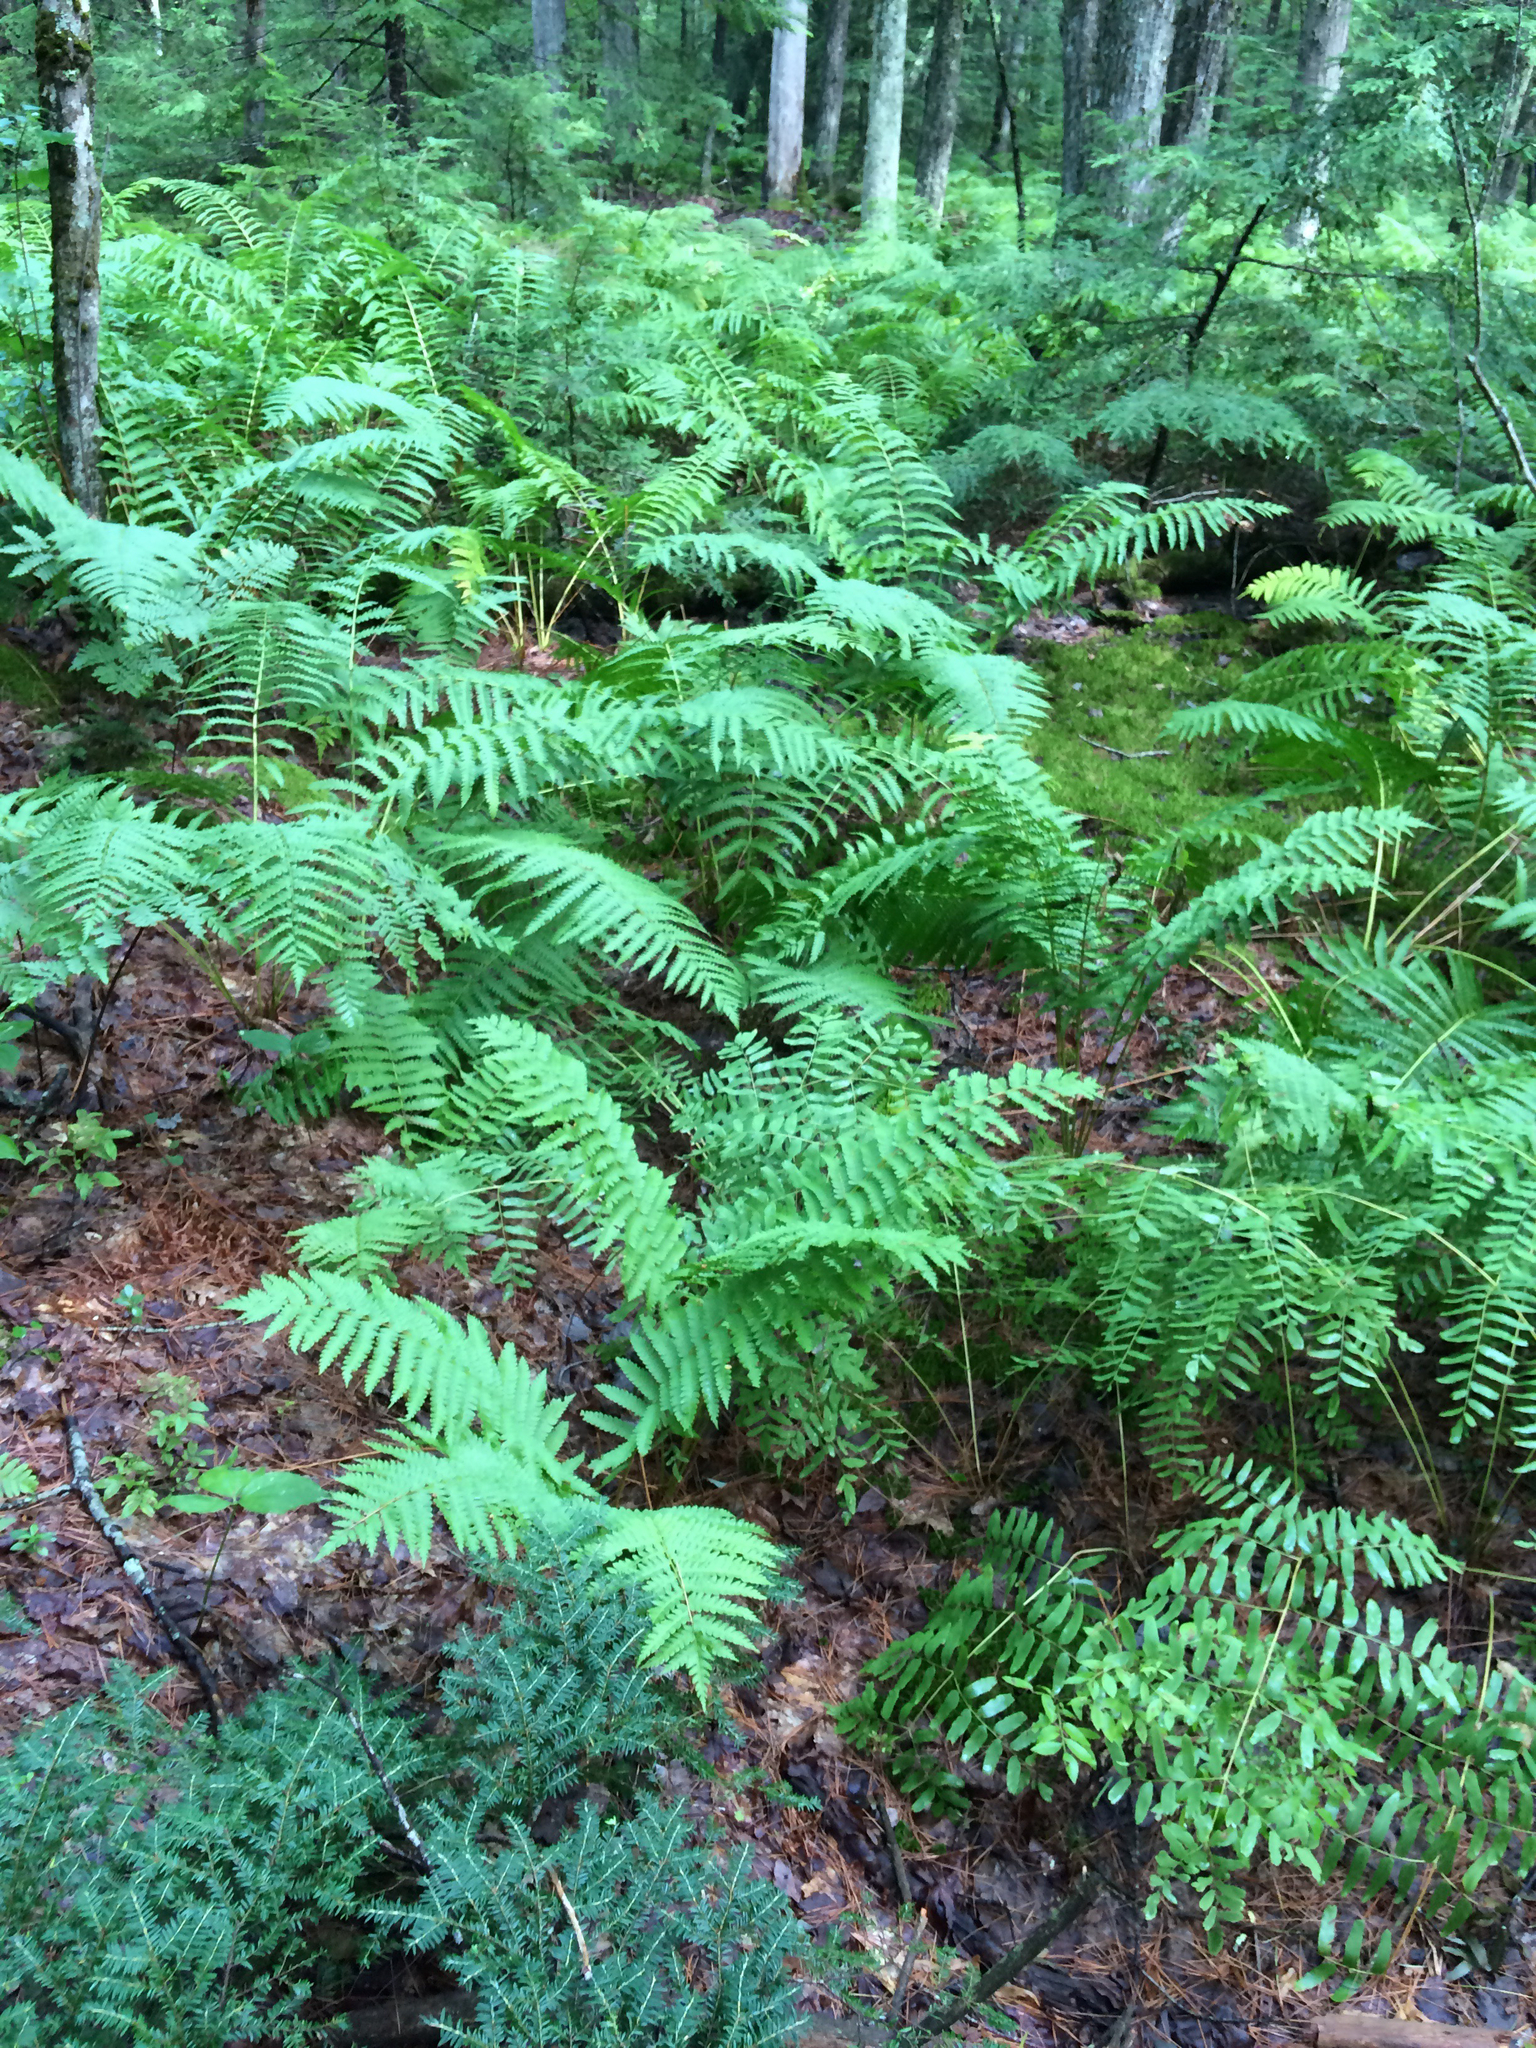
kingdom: Plantae
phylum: Tracheophyta
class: Polypodiopsida
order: Osmundales
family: Osmundaceae
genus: Osmundastrum
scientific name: Osmundastrum cinnamomeum
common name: Cinnamon fern
